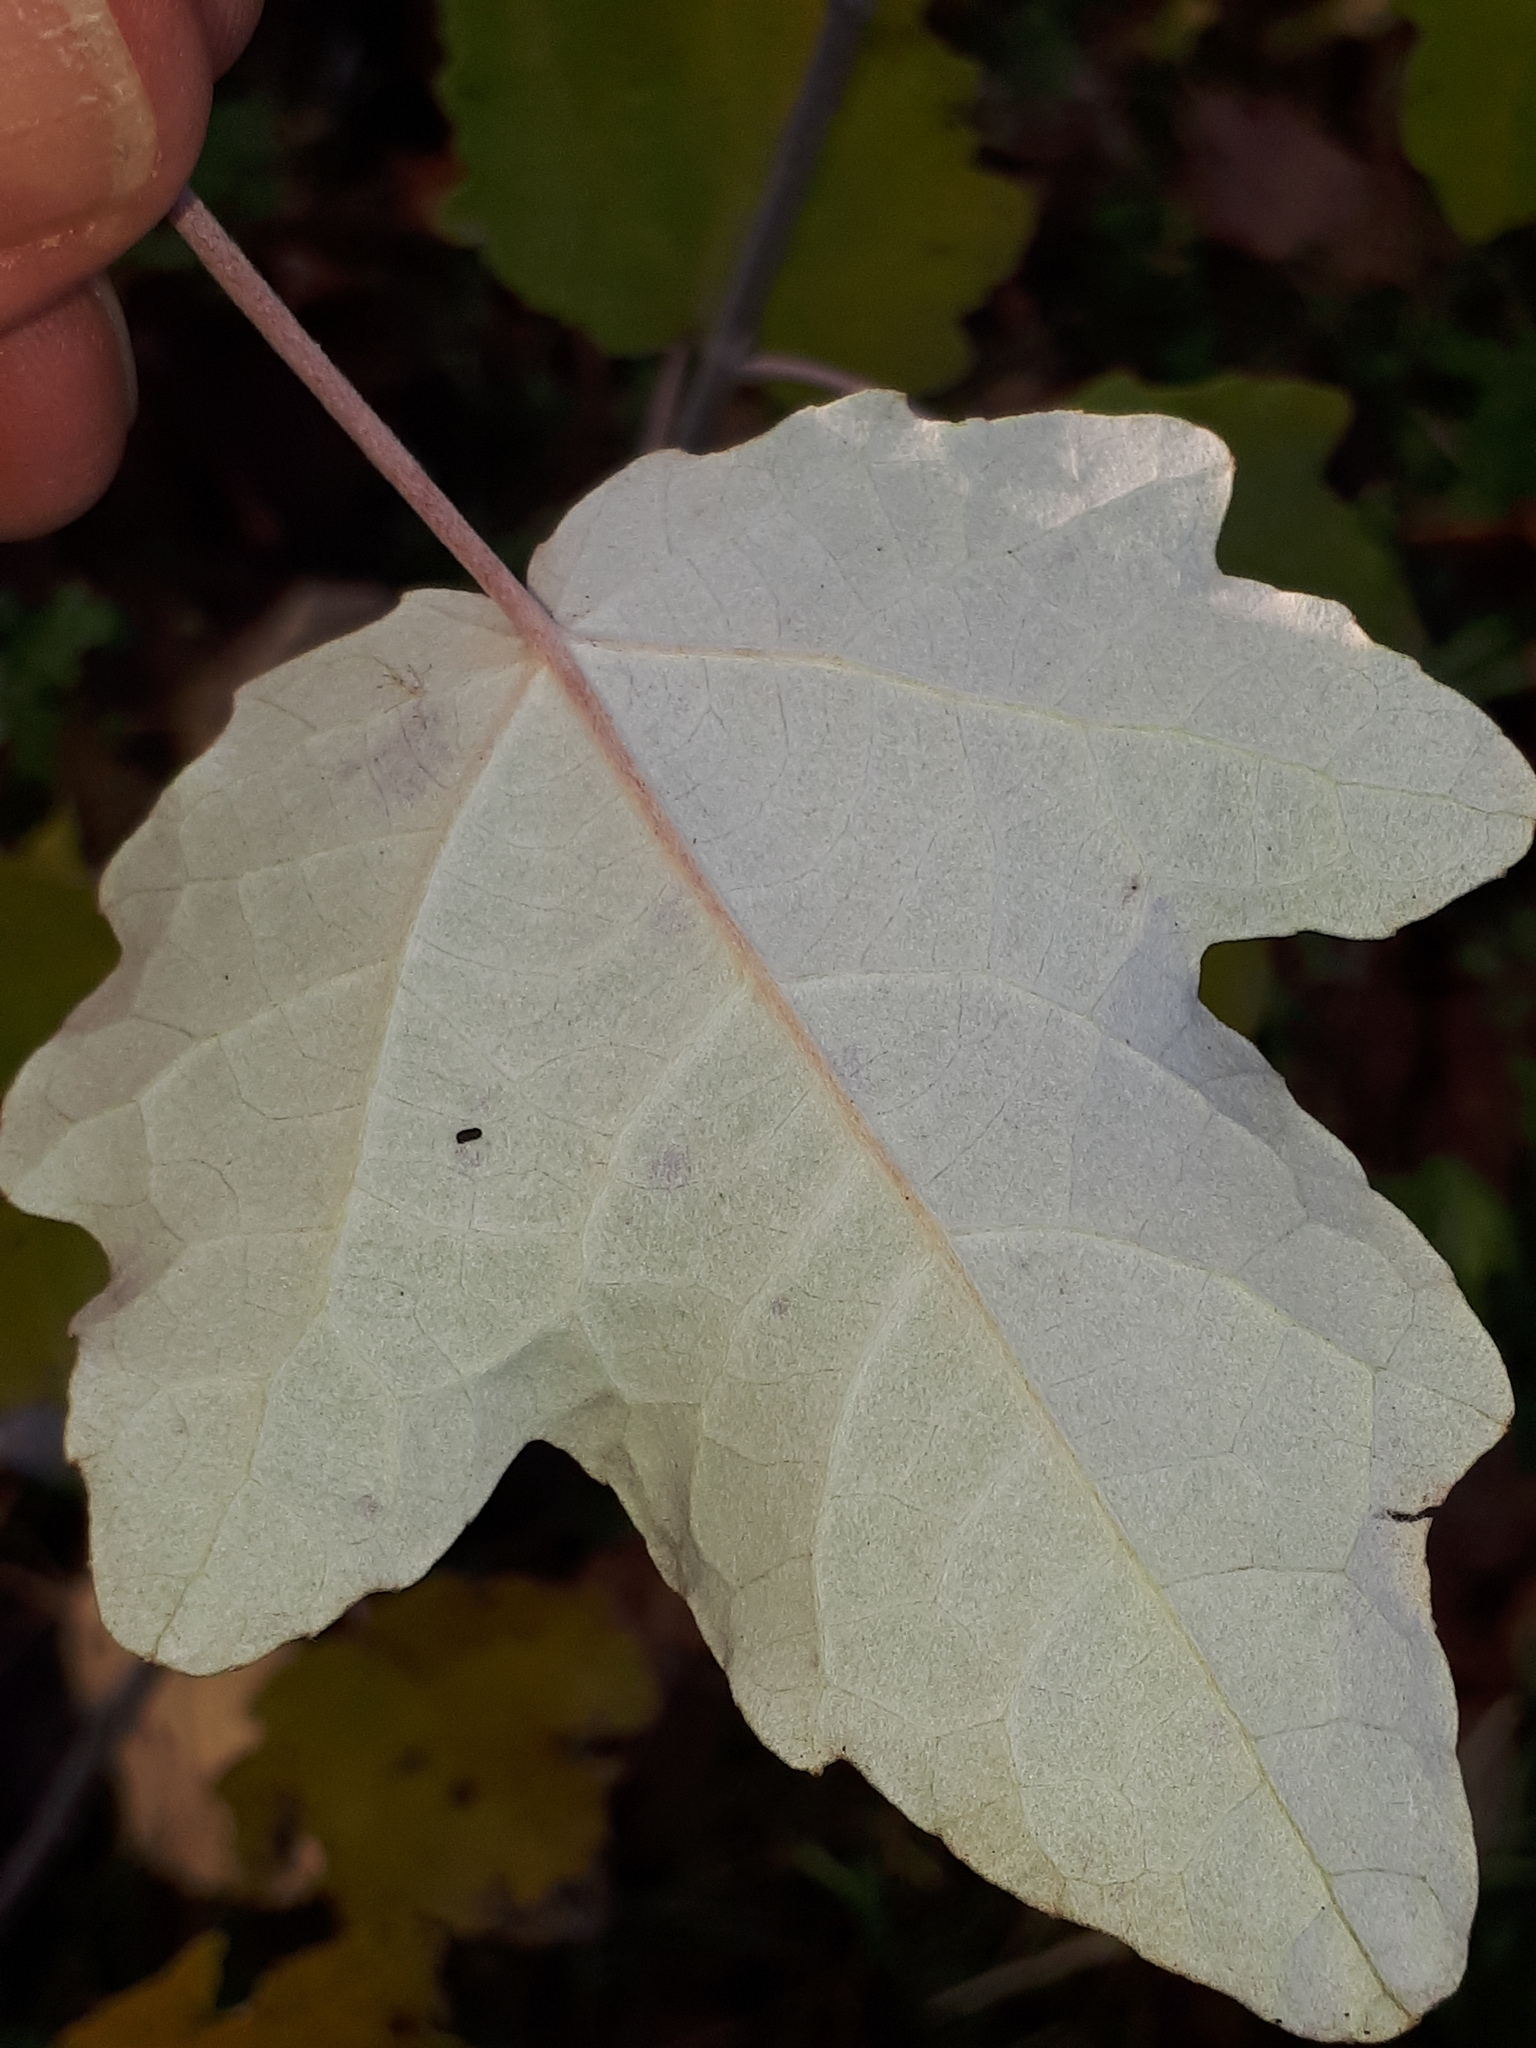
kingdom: Plantae
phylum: Tracheophyta
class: Magnoliopsida
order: Malpighiales
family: Salicaceae
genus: Populus
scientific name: Populus alba
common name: White poplar
